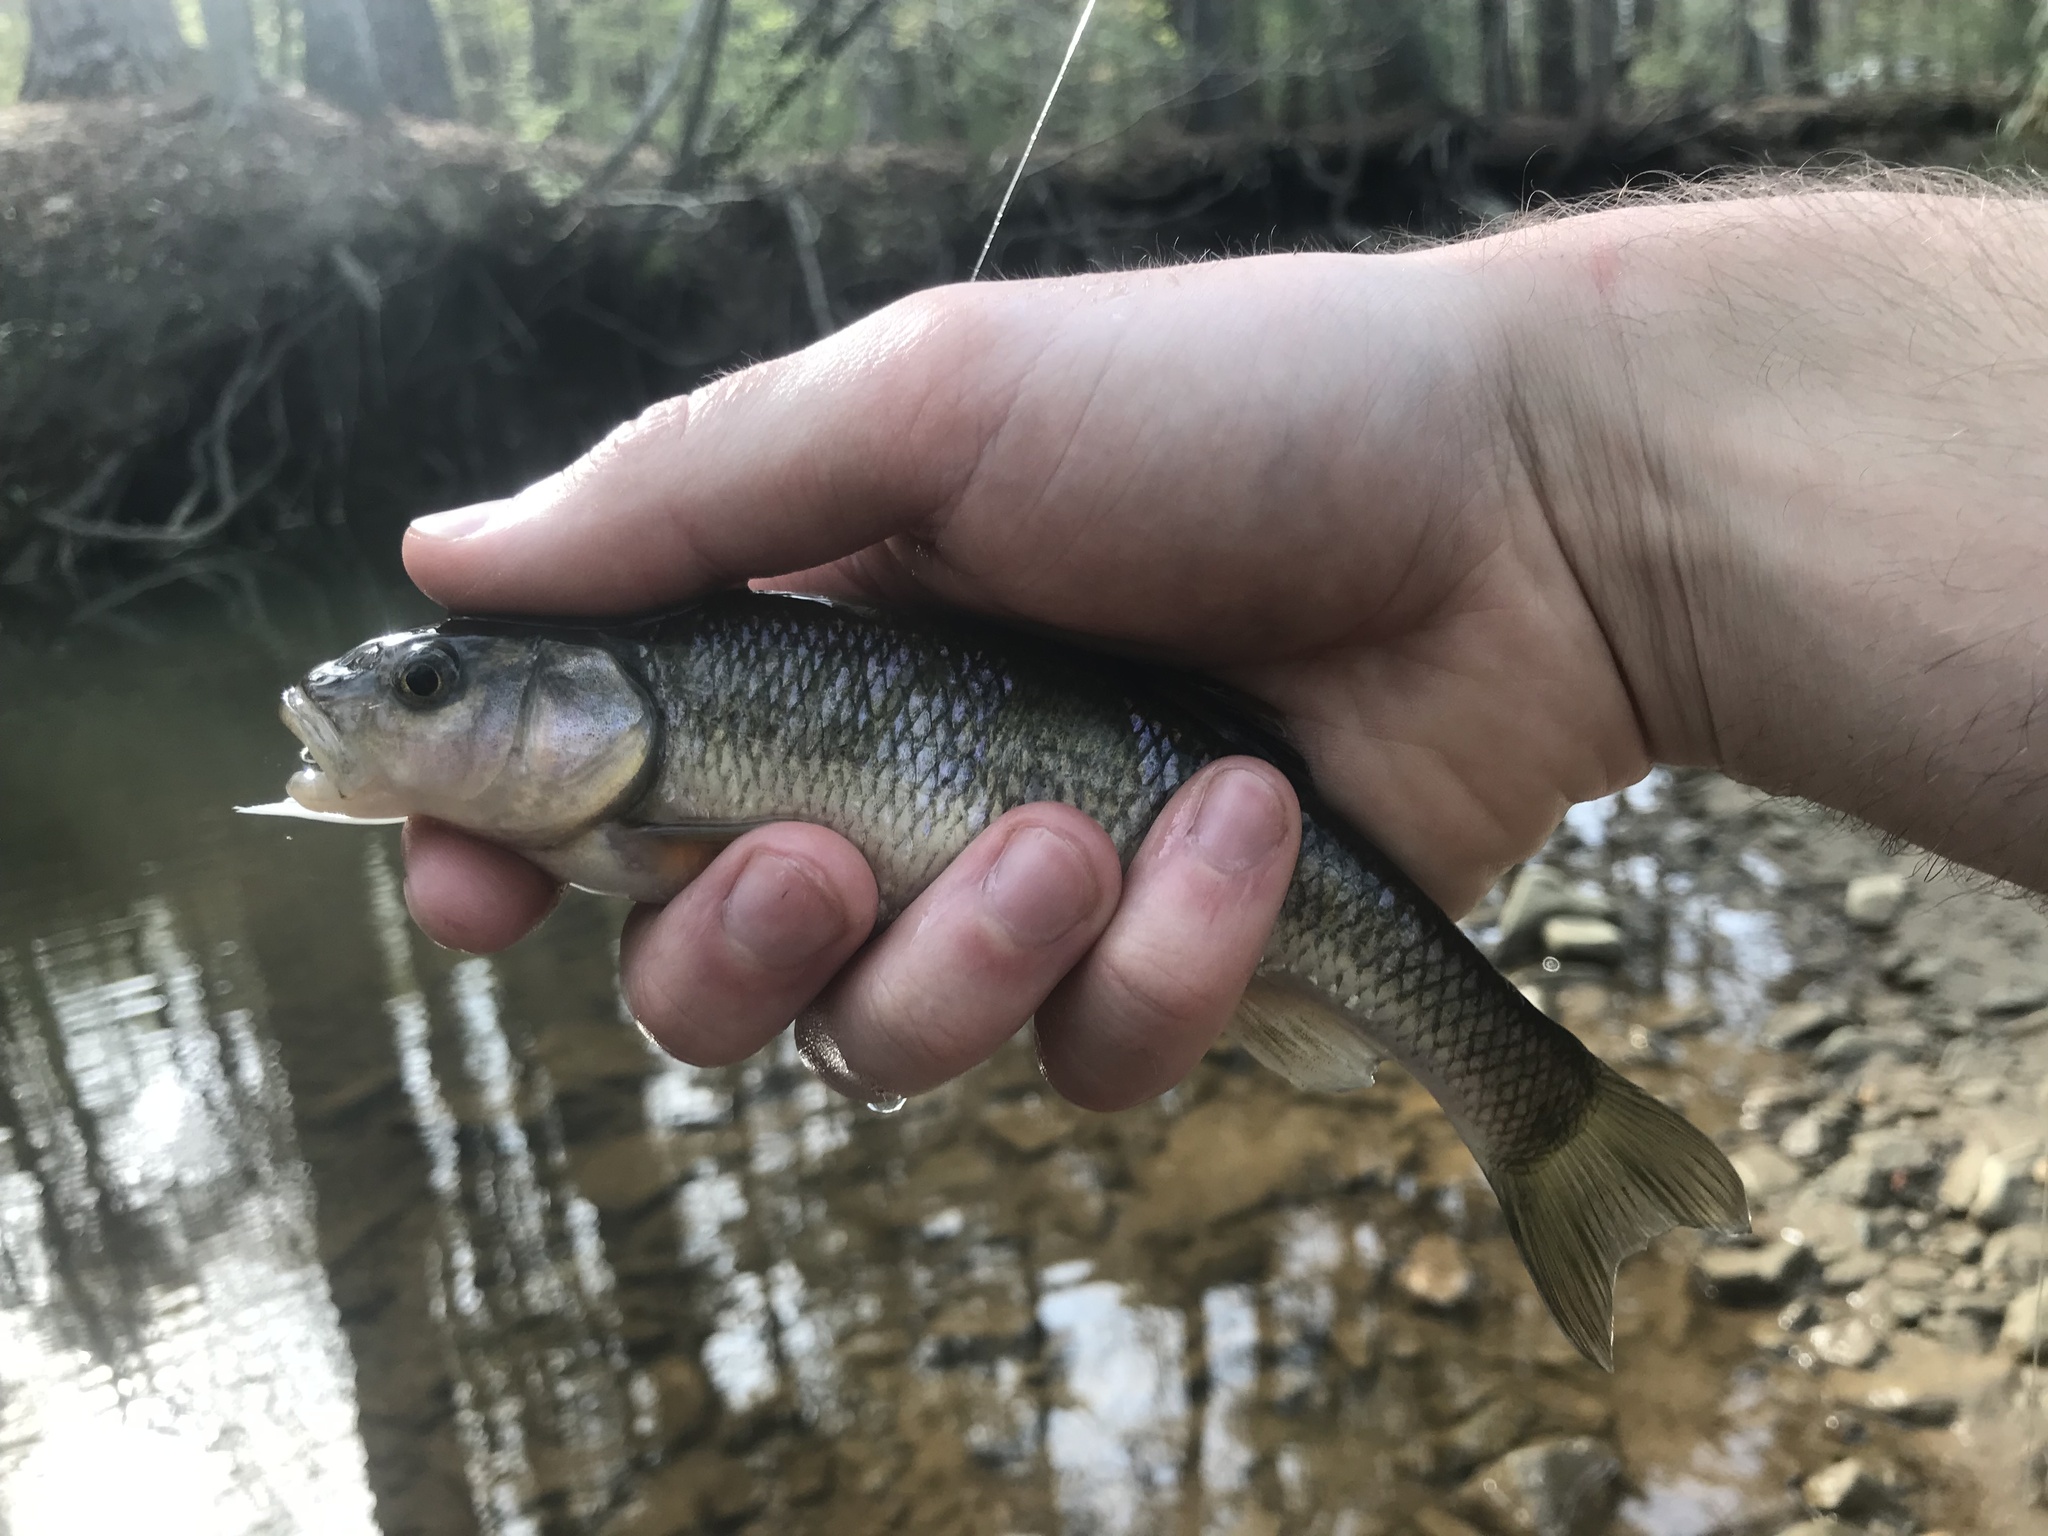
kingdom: Animalia
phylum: Chordata
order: Cypriniformes
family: Cyprinidae
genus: Semotilus
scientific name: Semotilus atromaculatus
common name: Creek chub
